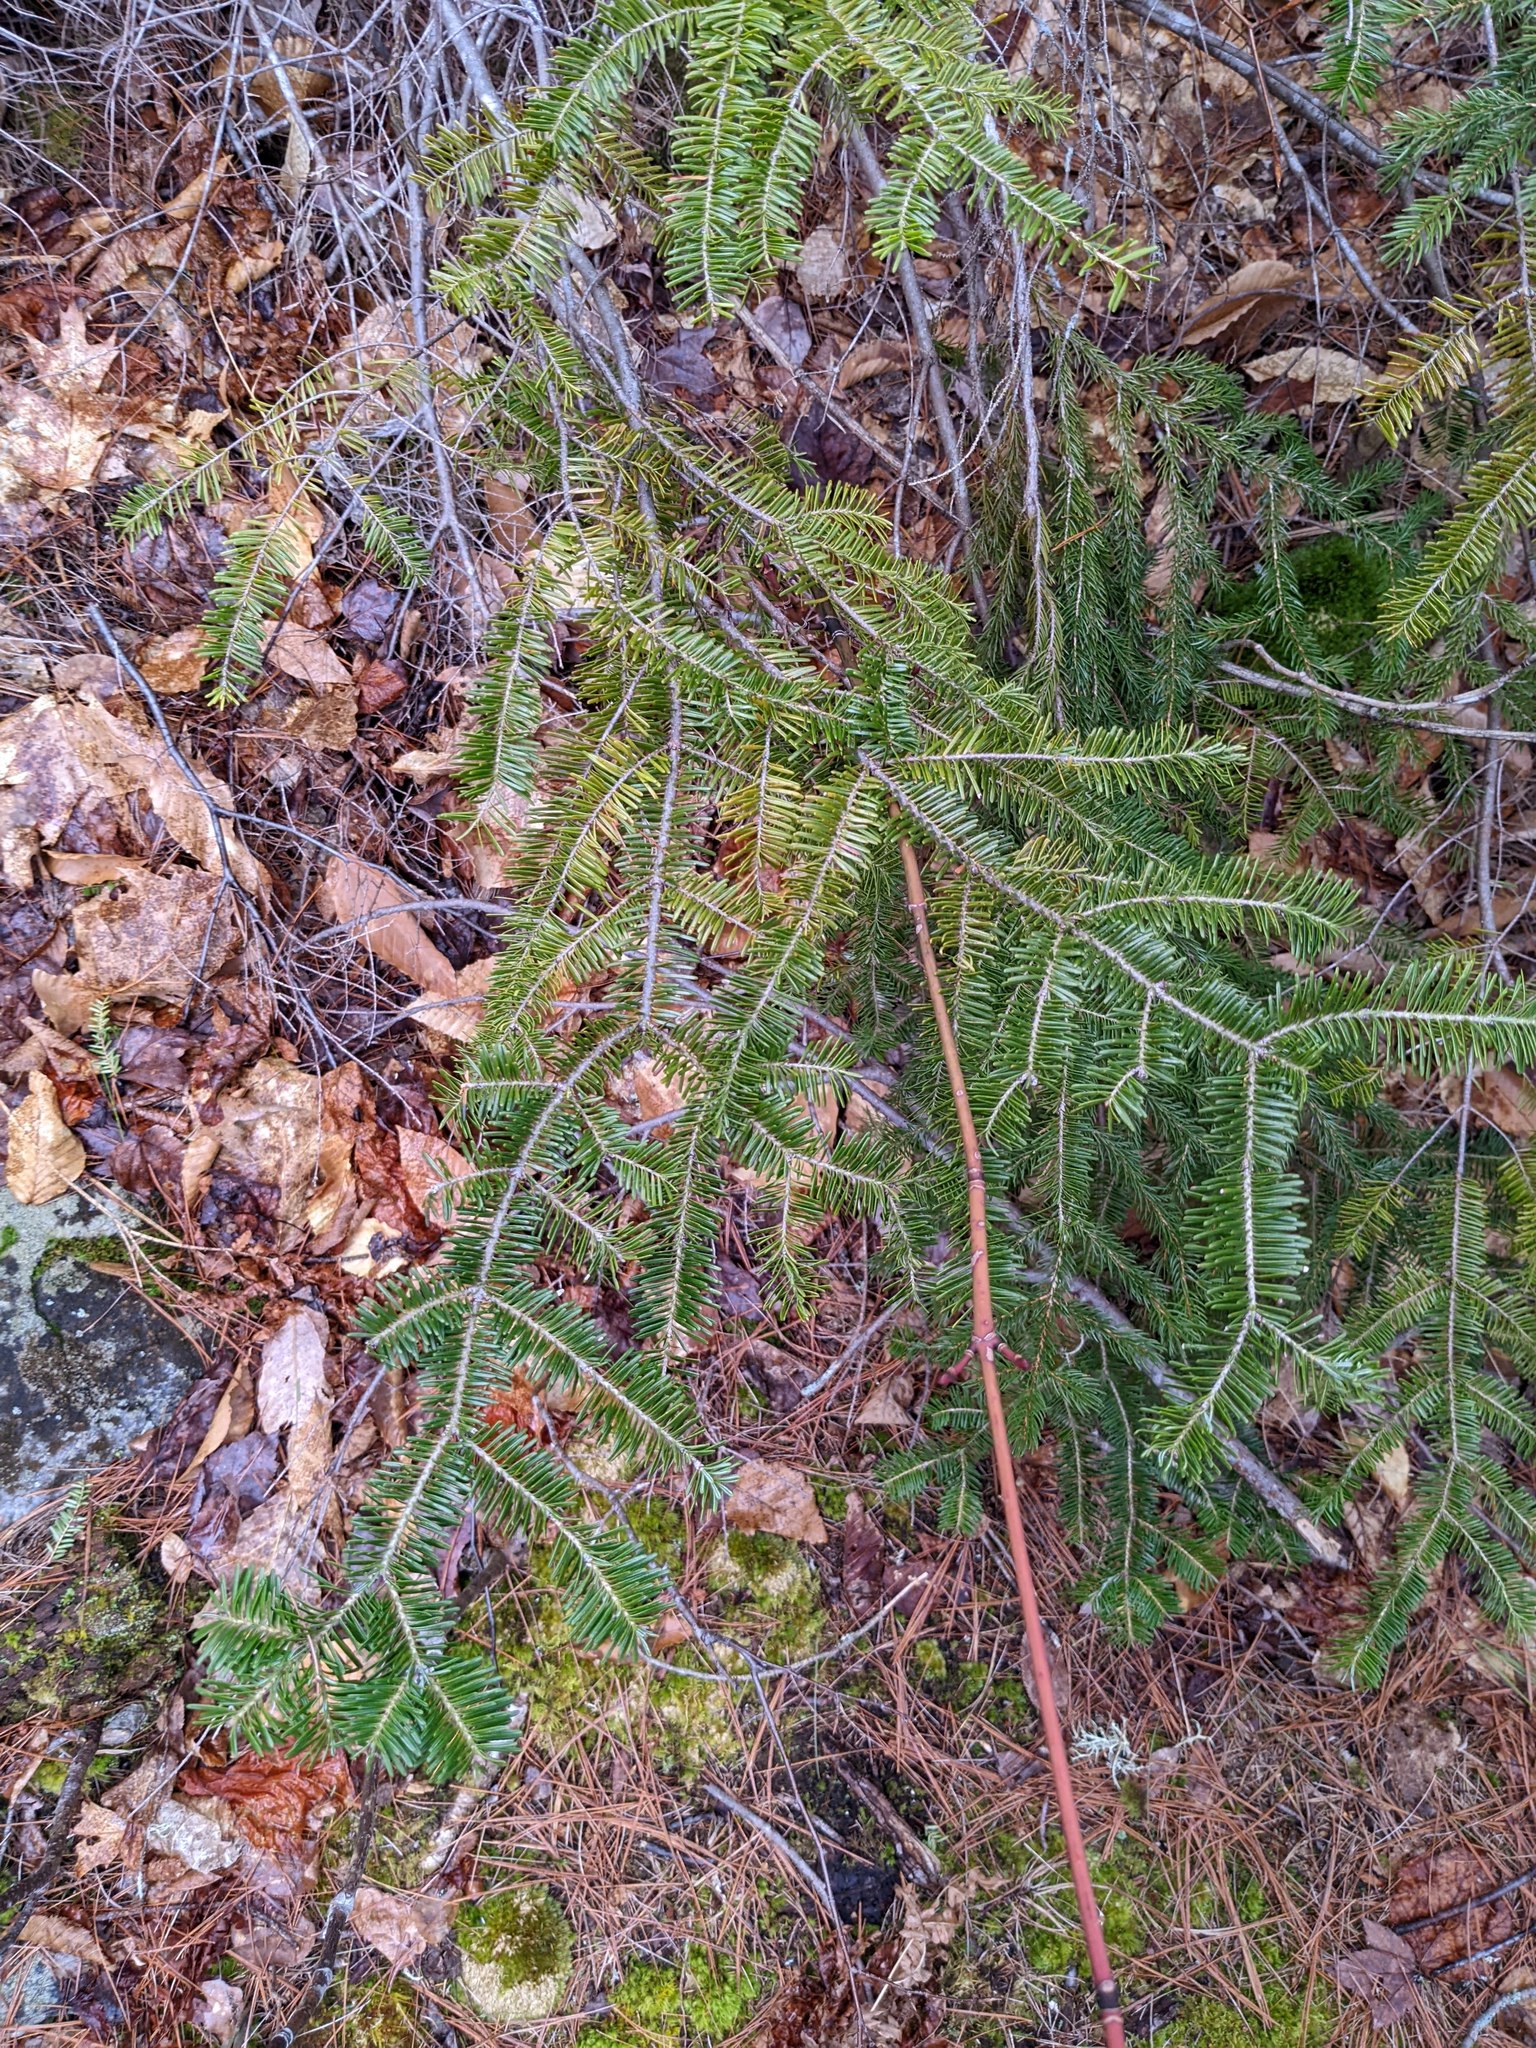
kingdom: Plantae
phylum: Tracheophyta
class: Pinopsida
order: Pinales
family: Pinaceae
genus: Abies
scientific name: Abies balsamea
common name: Balsam fir
